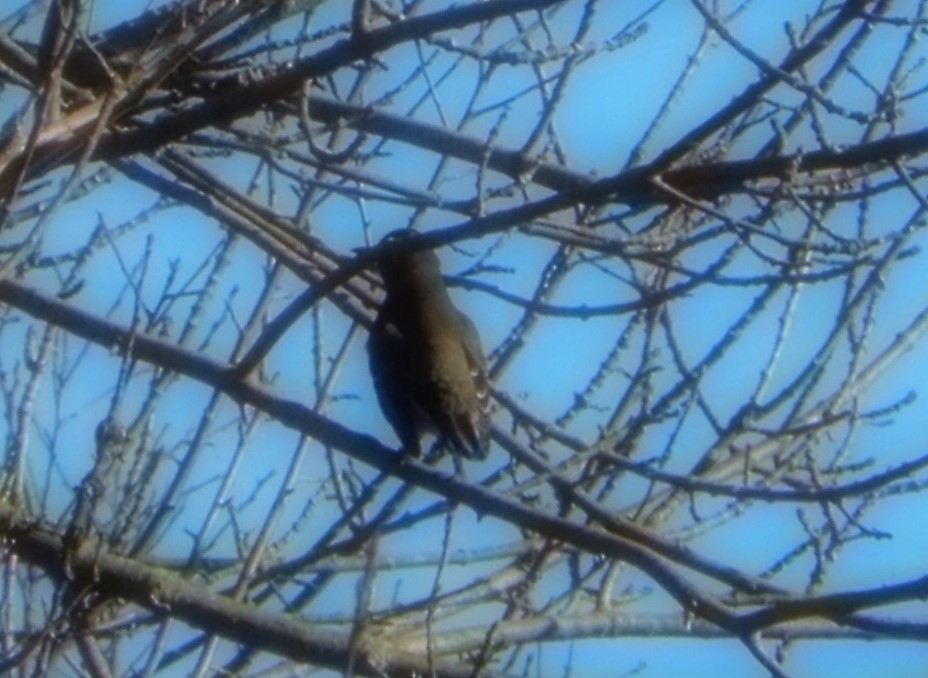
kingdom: Animalia
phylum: Chordata
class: Aves
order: Passeriformes
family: Turdidae
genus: Turdus
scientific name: Turdus migratorius
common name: American robin
